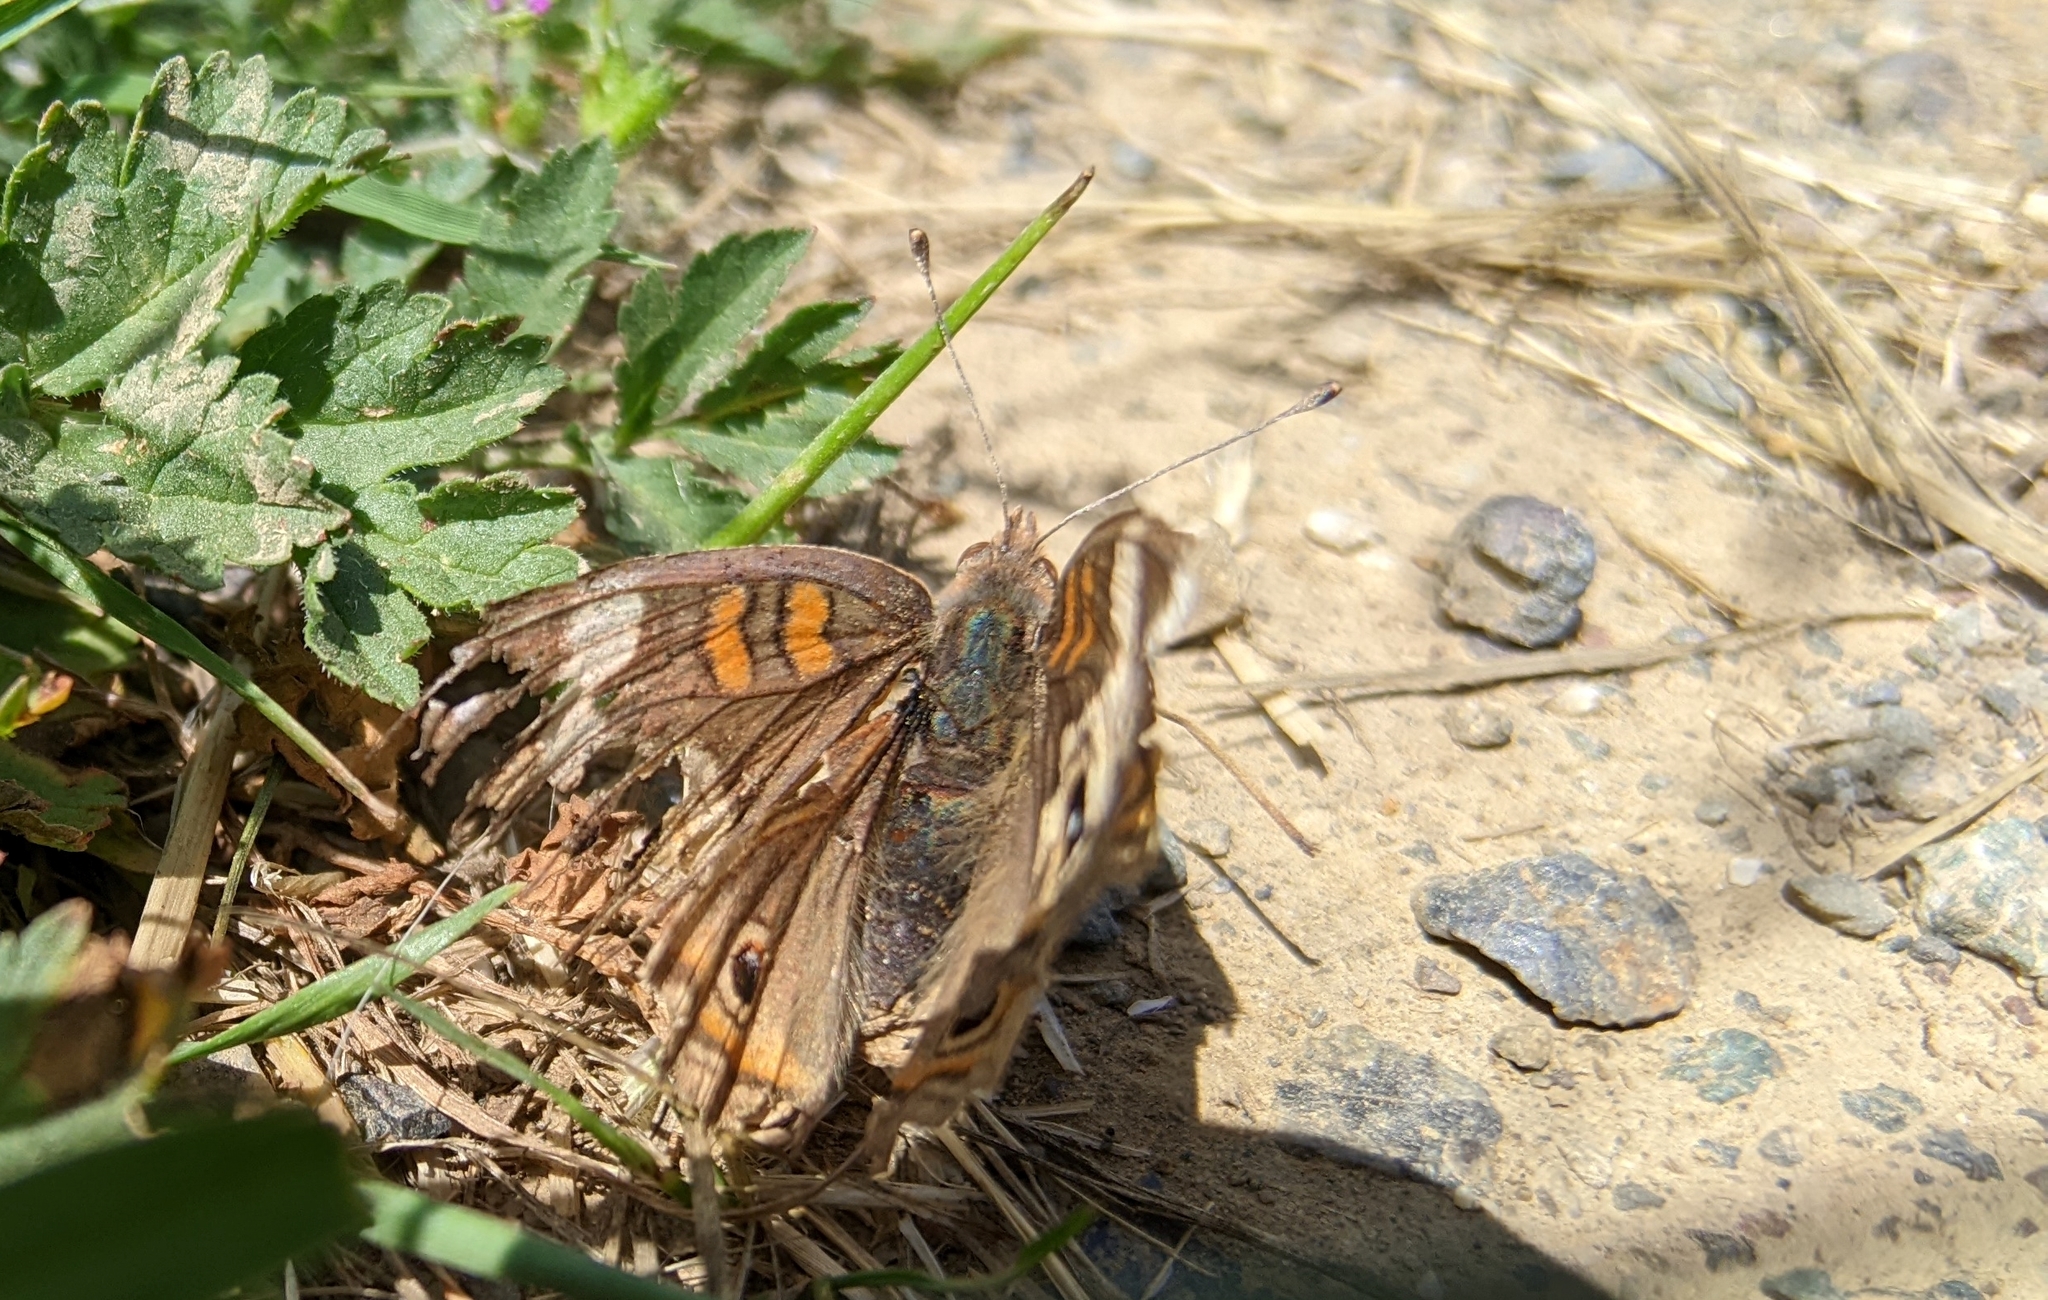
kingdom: Animalia
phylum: Arthropoda
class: Insecta
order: Lepidoptera
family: Nymphalidae
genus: Junonia
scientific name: Junonia grisea
